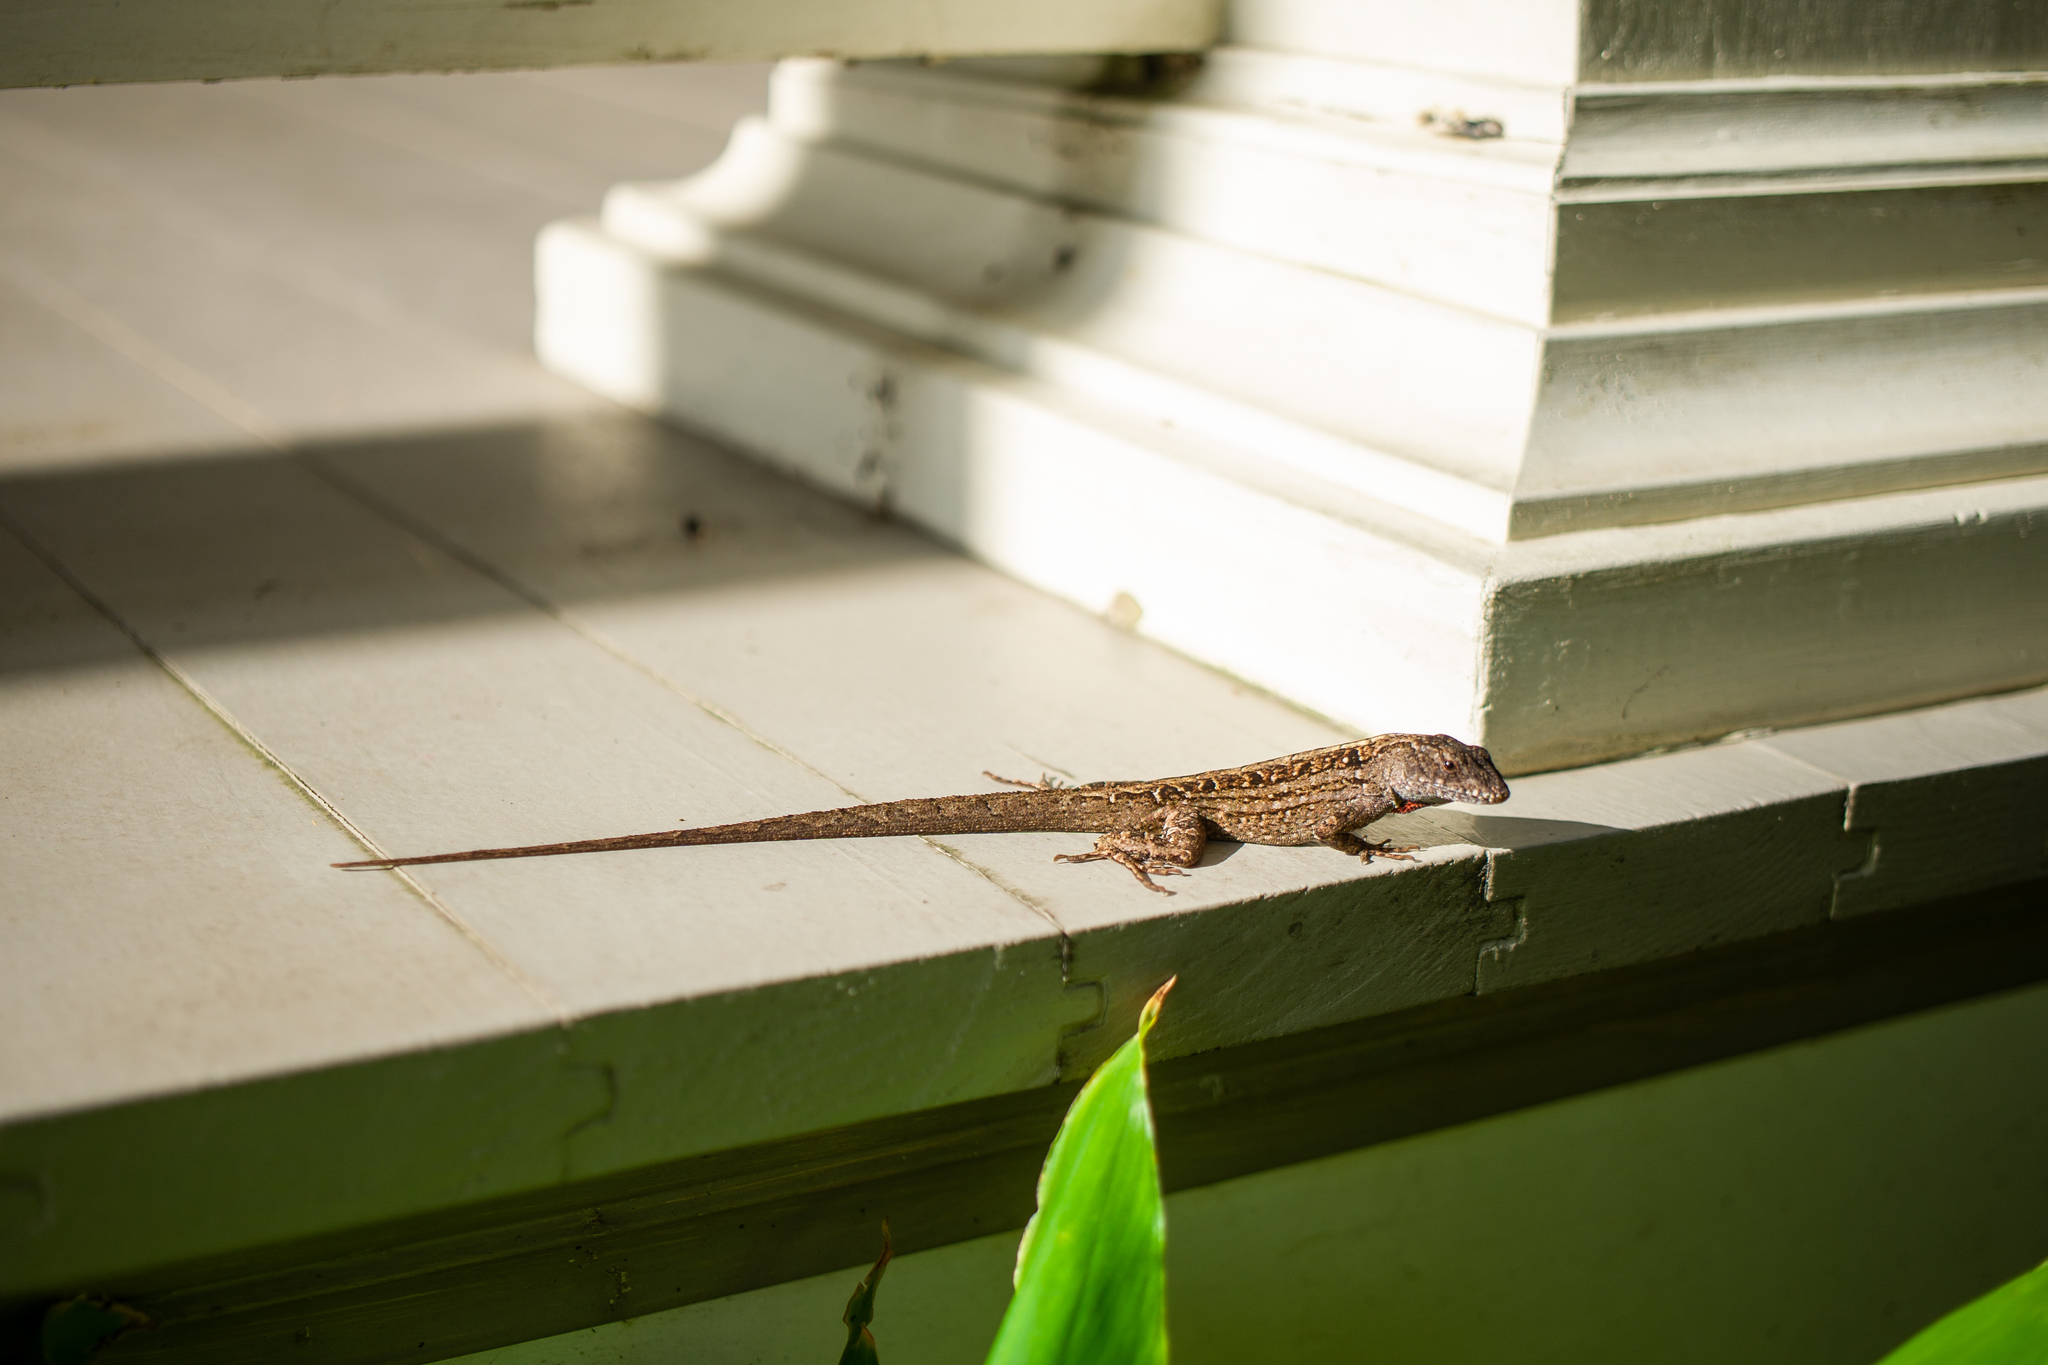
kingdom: Animalia
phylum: Chordata
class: Squamata
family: Dactyloidae
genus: Anolis
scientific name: Anolis sagrei
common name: Brown anole
